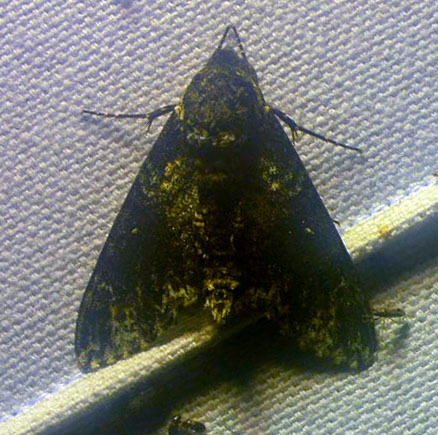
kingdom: Animalia
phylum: Arthropoda
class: Insecta
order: Lepidoptera
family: Sphingidae
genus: Dolba
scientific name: Dolba hyloeus
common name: Pawpaw sphinx
